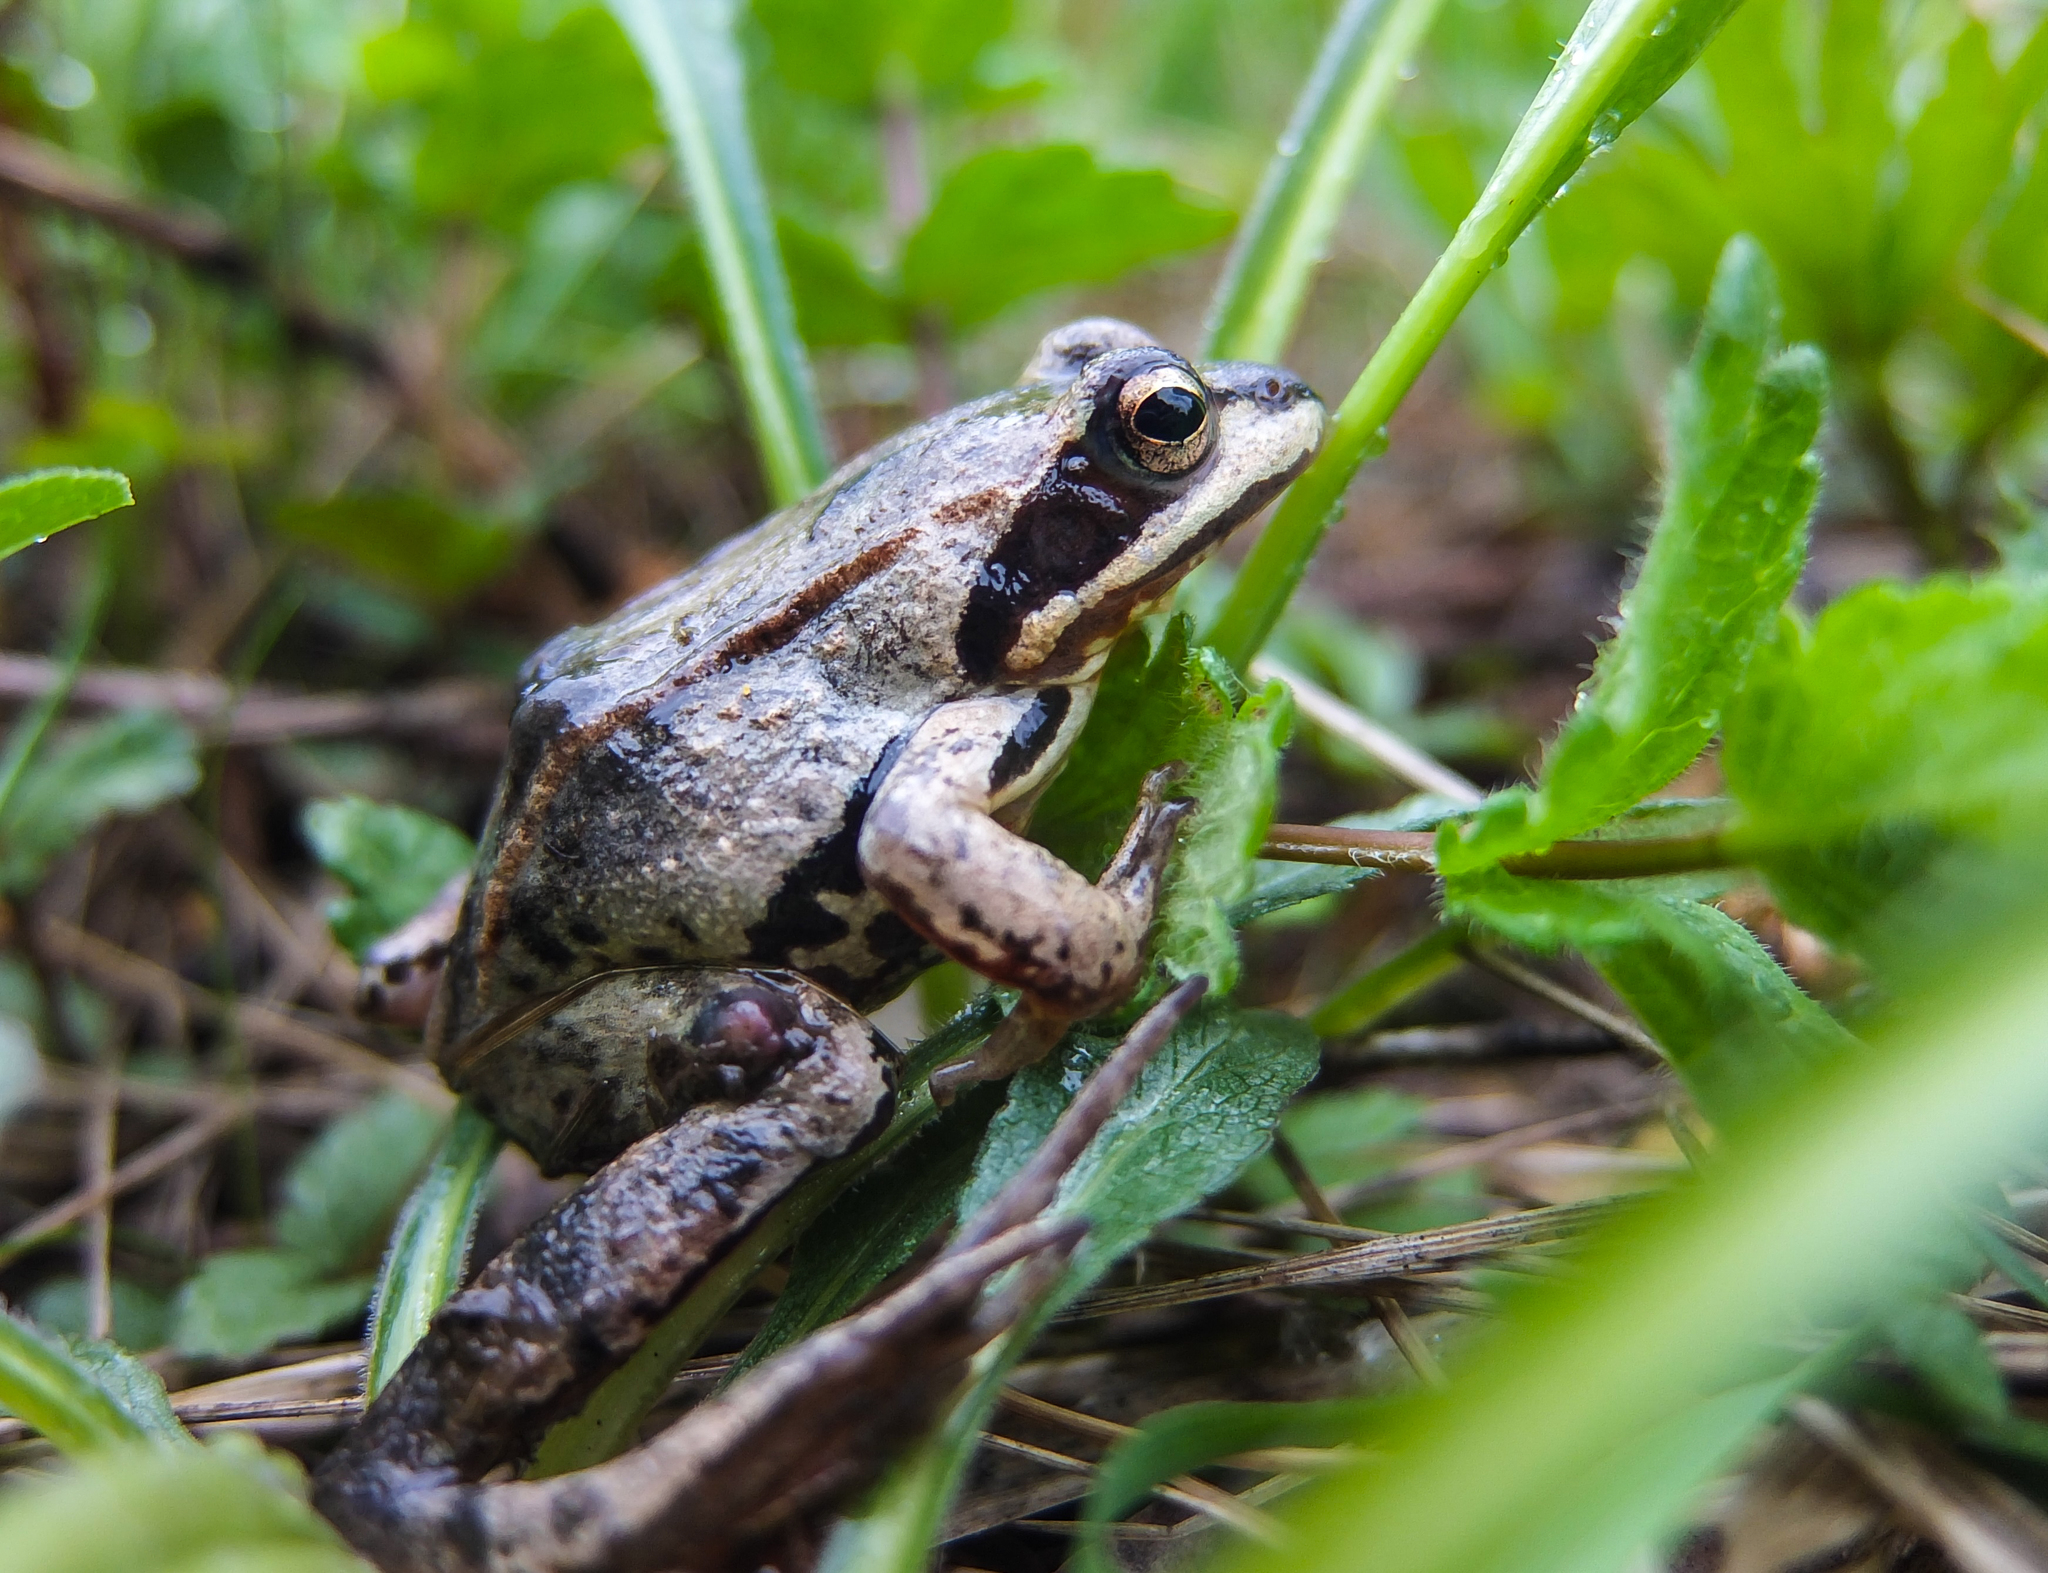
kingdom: Animalia
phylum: Chordata
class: Amphibia
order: Anura
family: Ranidae
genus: Rana
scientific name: Rana arvalis
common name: Moor frog
